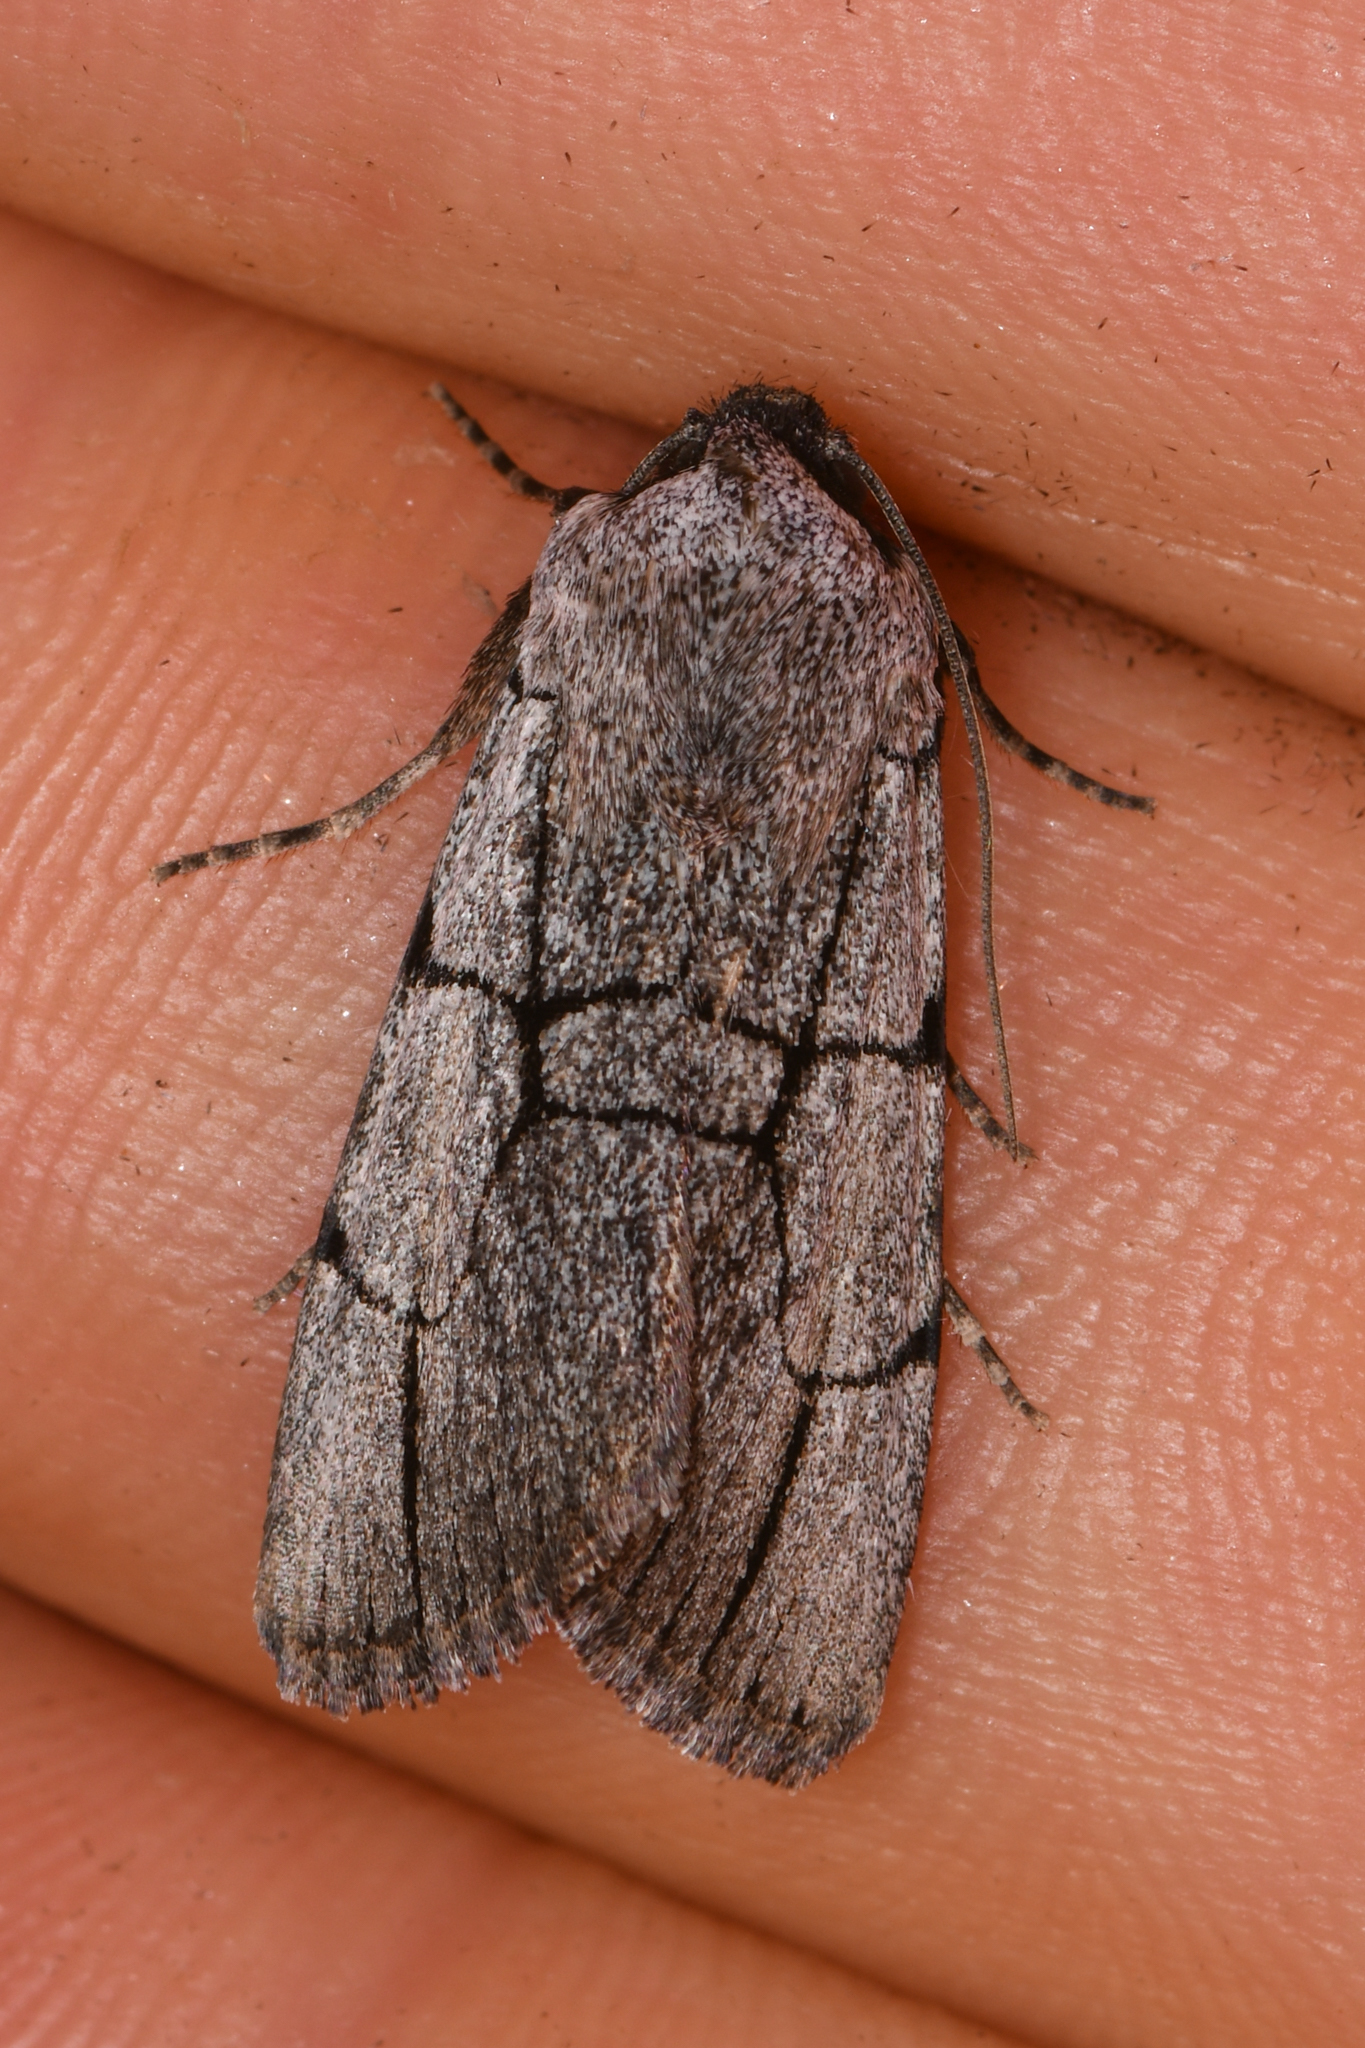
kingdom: Animalia
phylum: Arthropoda
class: Insecta
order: Lepidoptera
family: Noctuidae
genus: Sympistis
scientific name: Sympistis ragani
